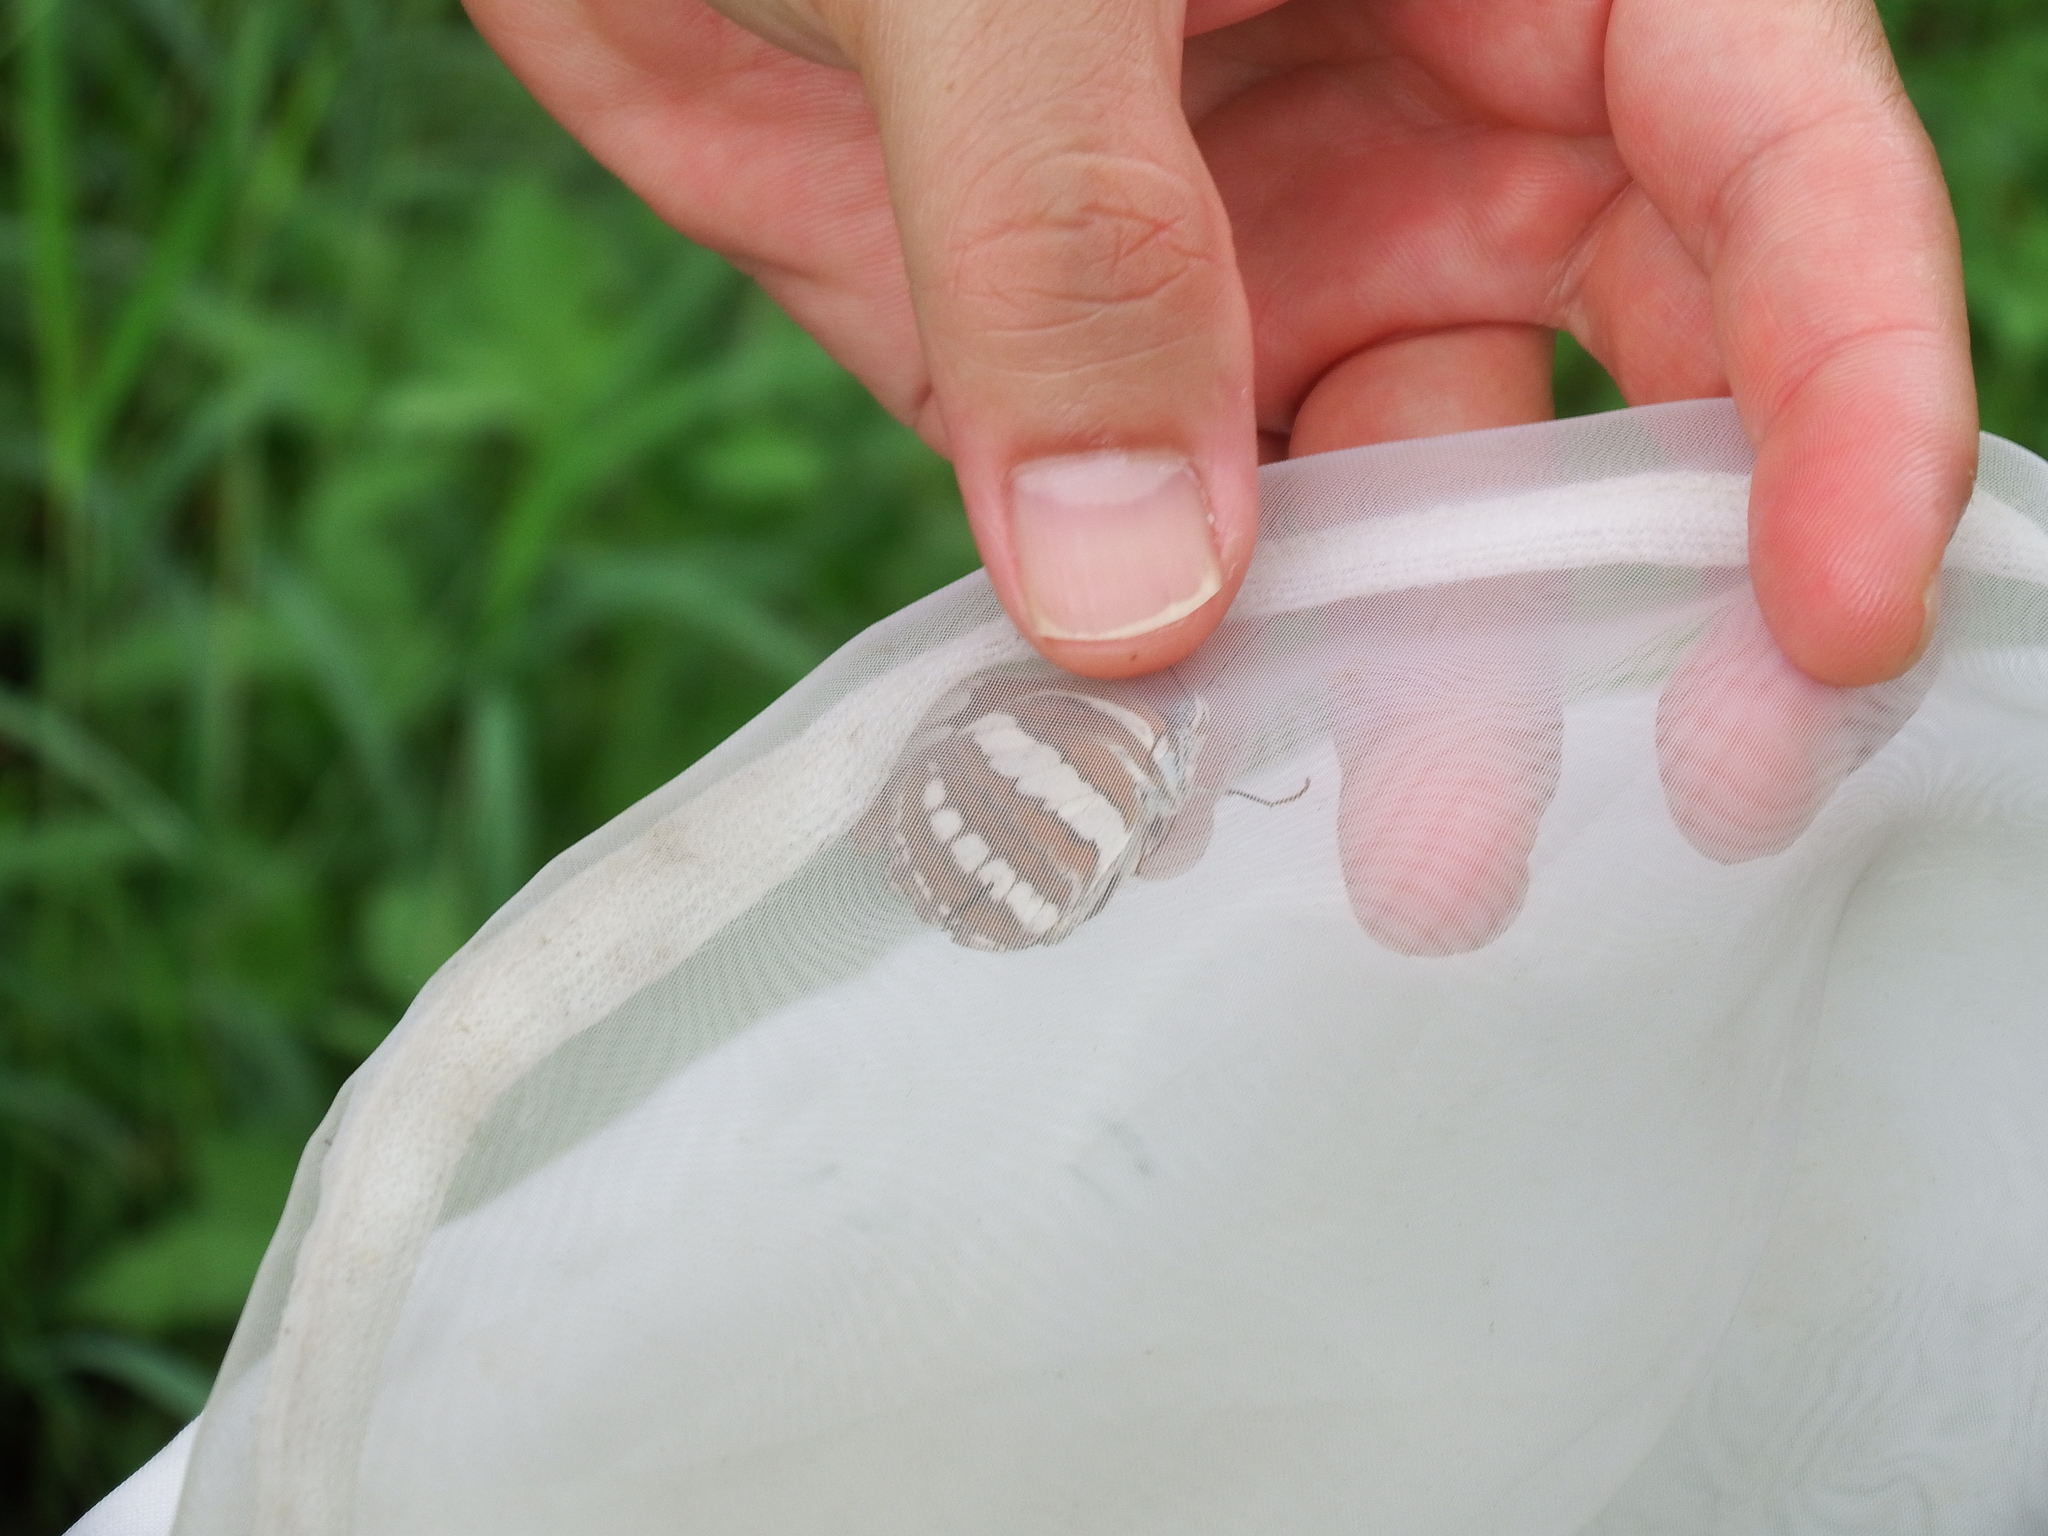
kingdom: Animalia
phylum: Arthropoda
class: Insecta
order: Lepidoptera
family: Nymphalidae
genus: Neptis
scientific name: Neptis hylas
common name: Common sailer
